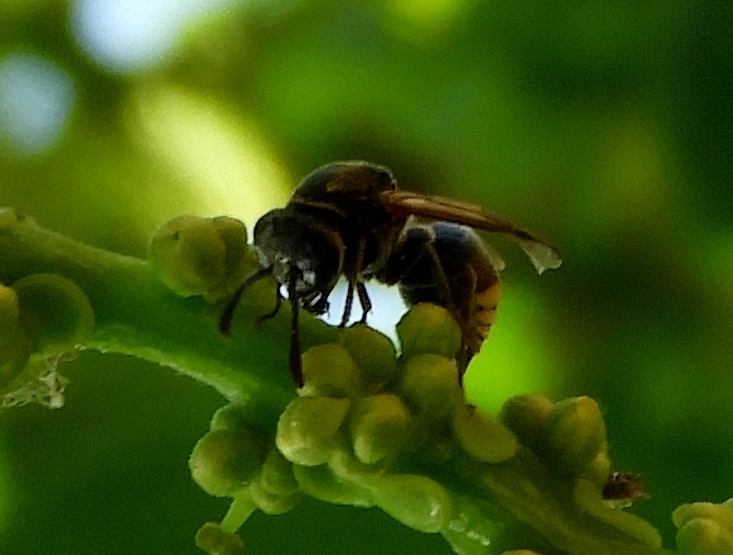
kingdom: Animalia
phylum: Arthropoda
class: Insecta
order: Hymenoptera
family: Vespidae
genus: Brachygastra
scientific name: Brachygastra azteca
